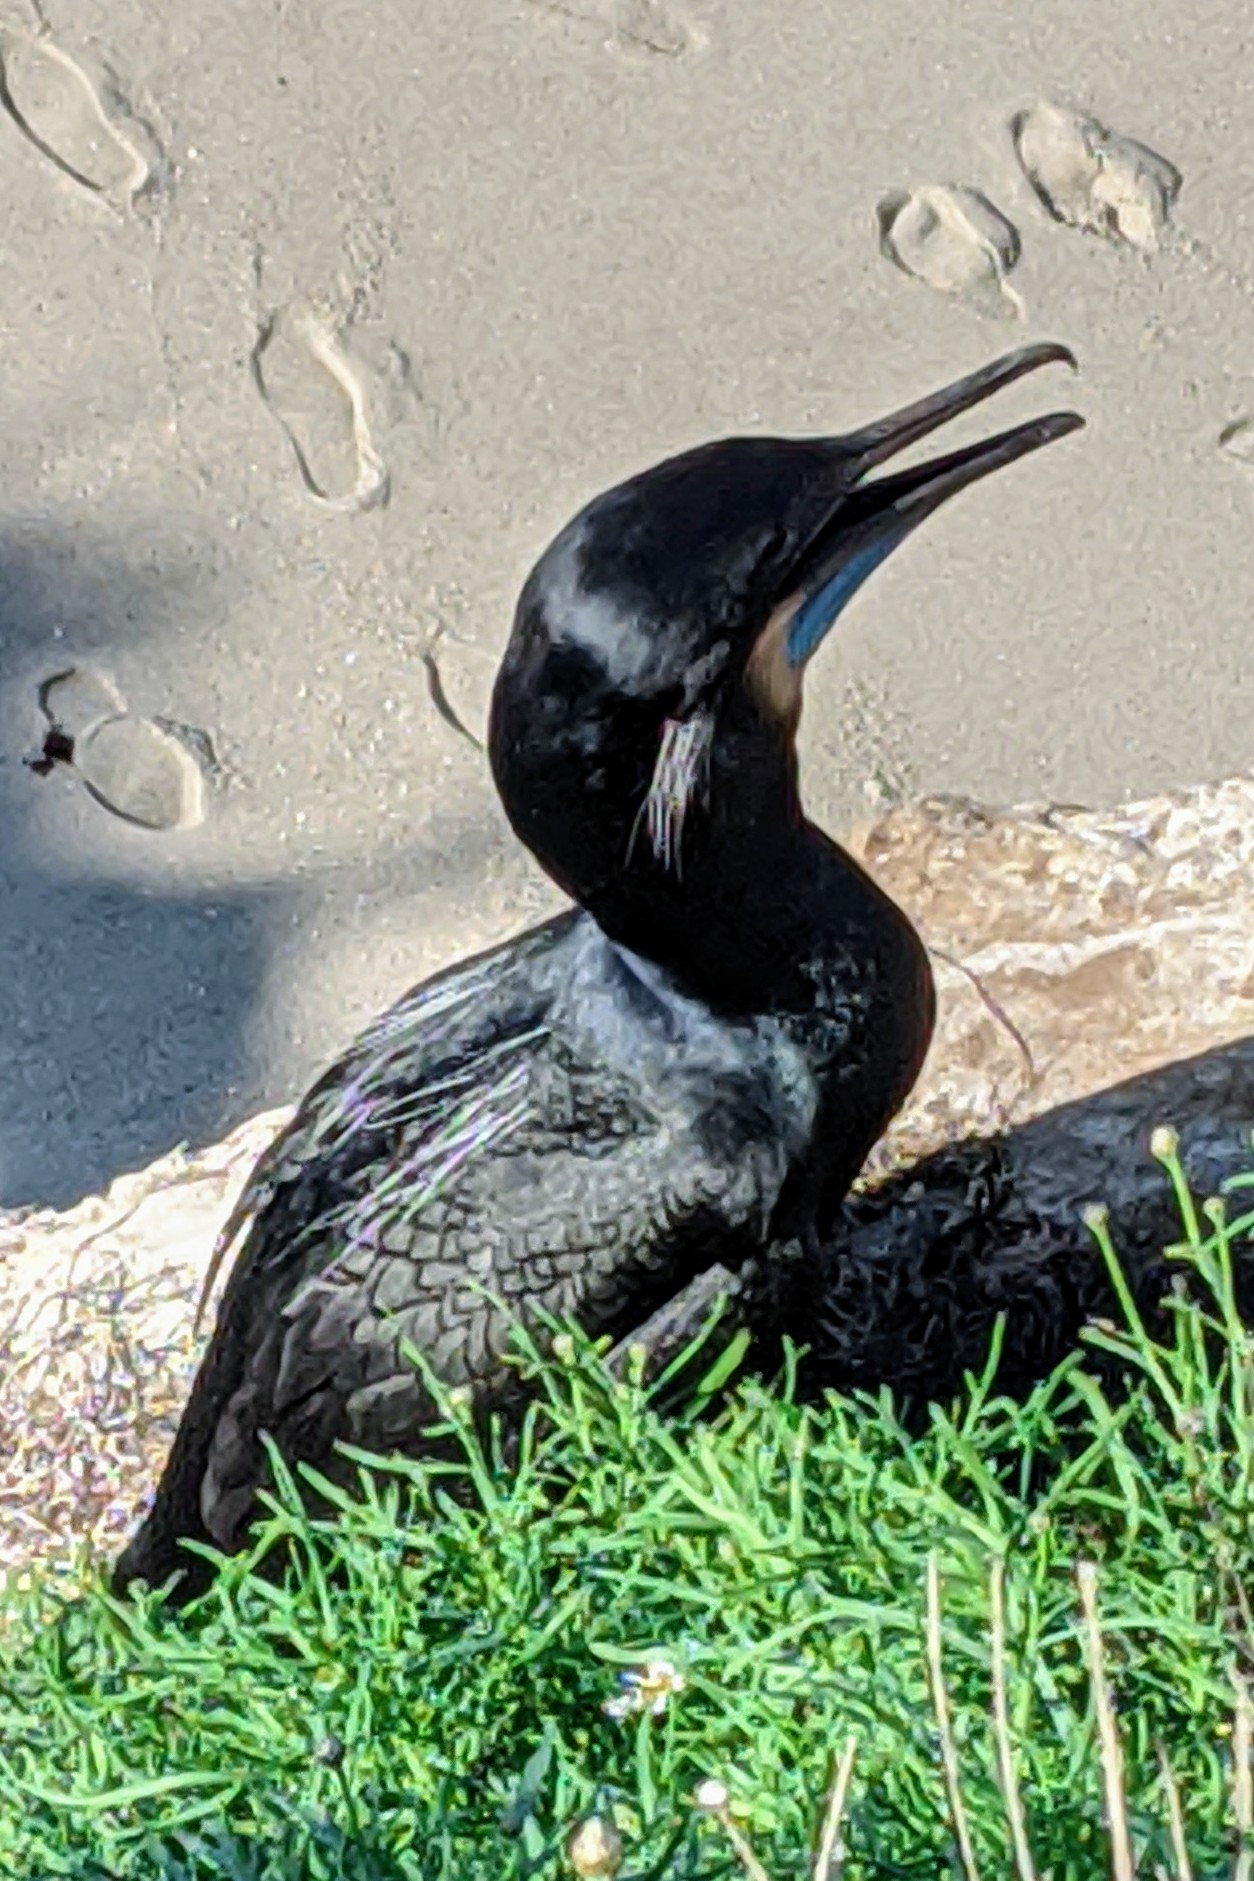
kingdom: Animalia
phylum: Chordata
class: Aves
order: Suliformes
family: Phalacrocoracidae
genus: Urile
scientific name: Urile penicillatus
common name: Brandt's cormorant
